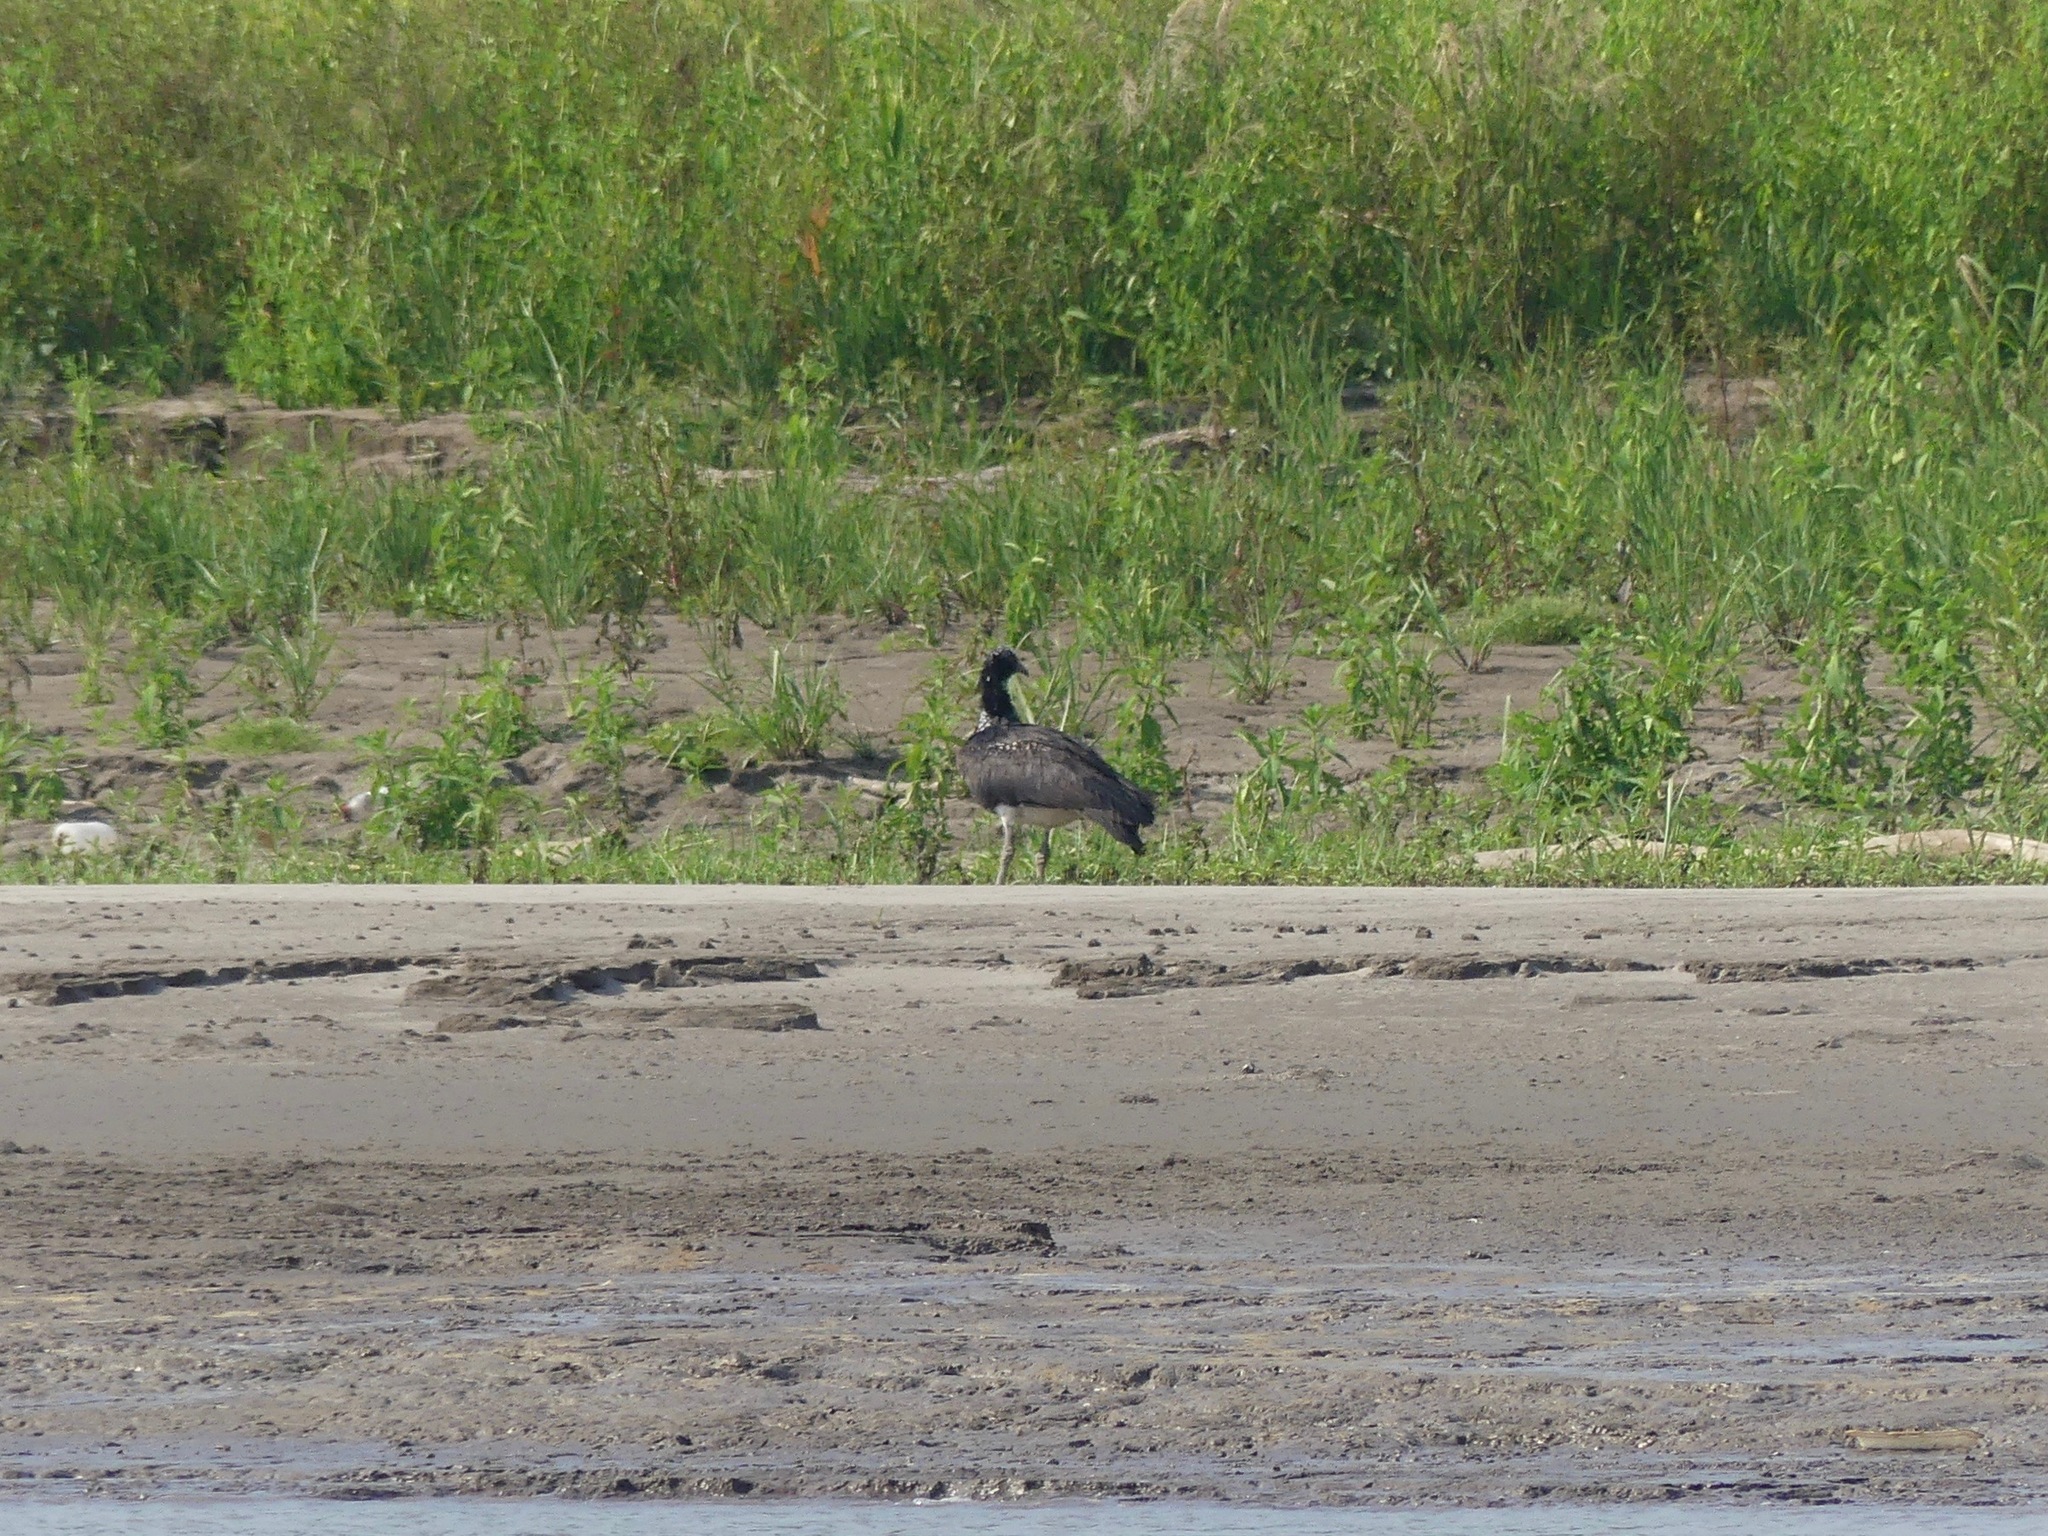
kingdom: Animalia
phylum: Chordata
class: Aves
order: Anseriformes
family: Anhimidae
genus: Anhima
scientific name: Anhima cornuta
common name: Horned screamer
